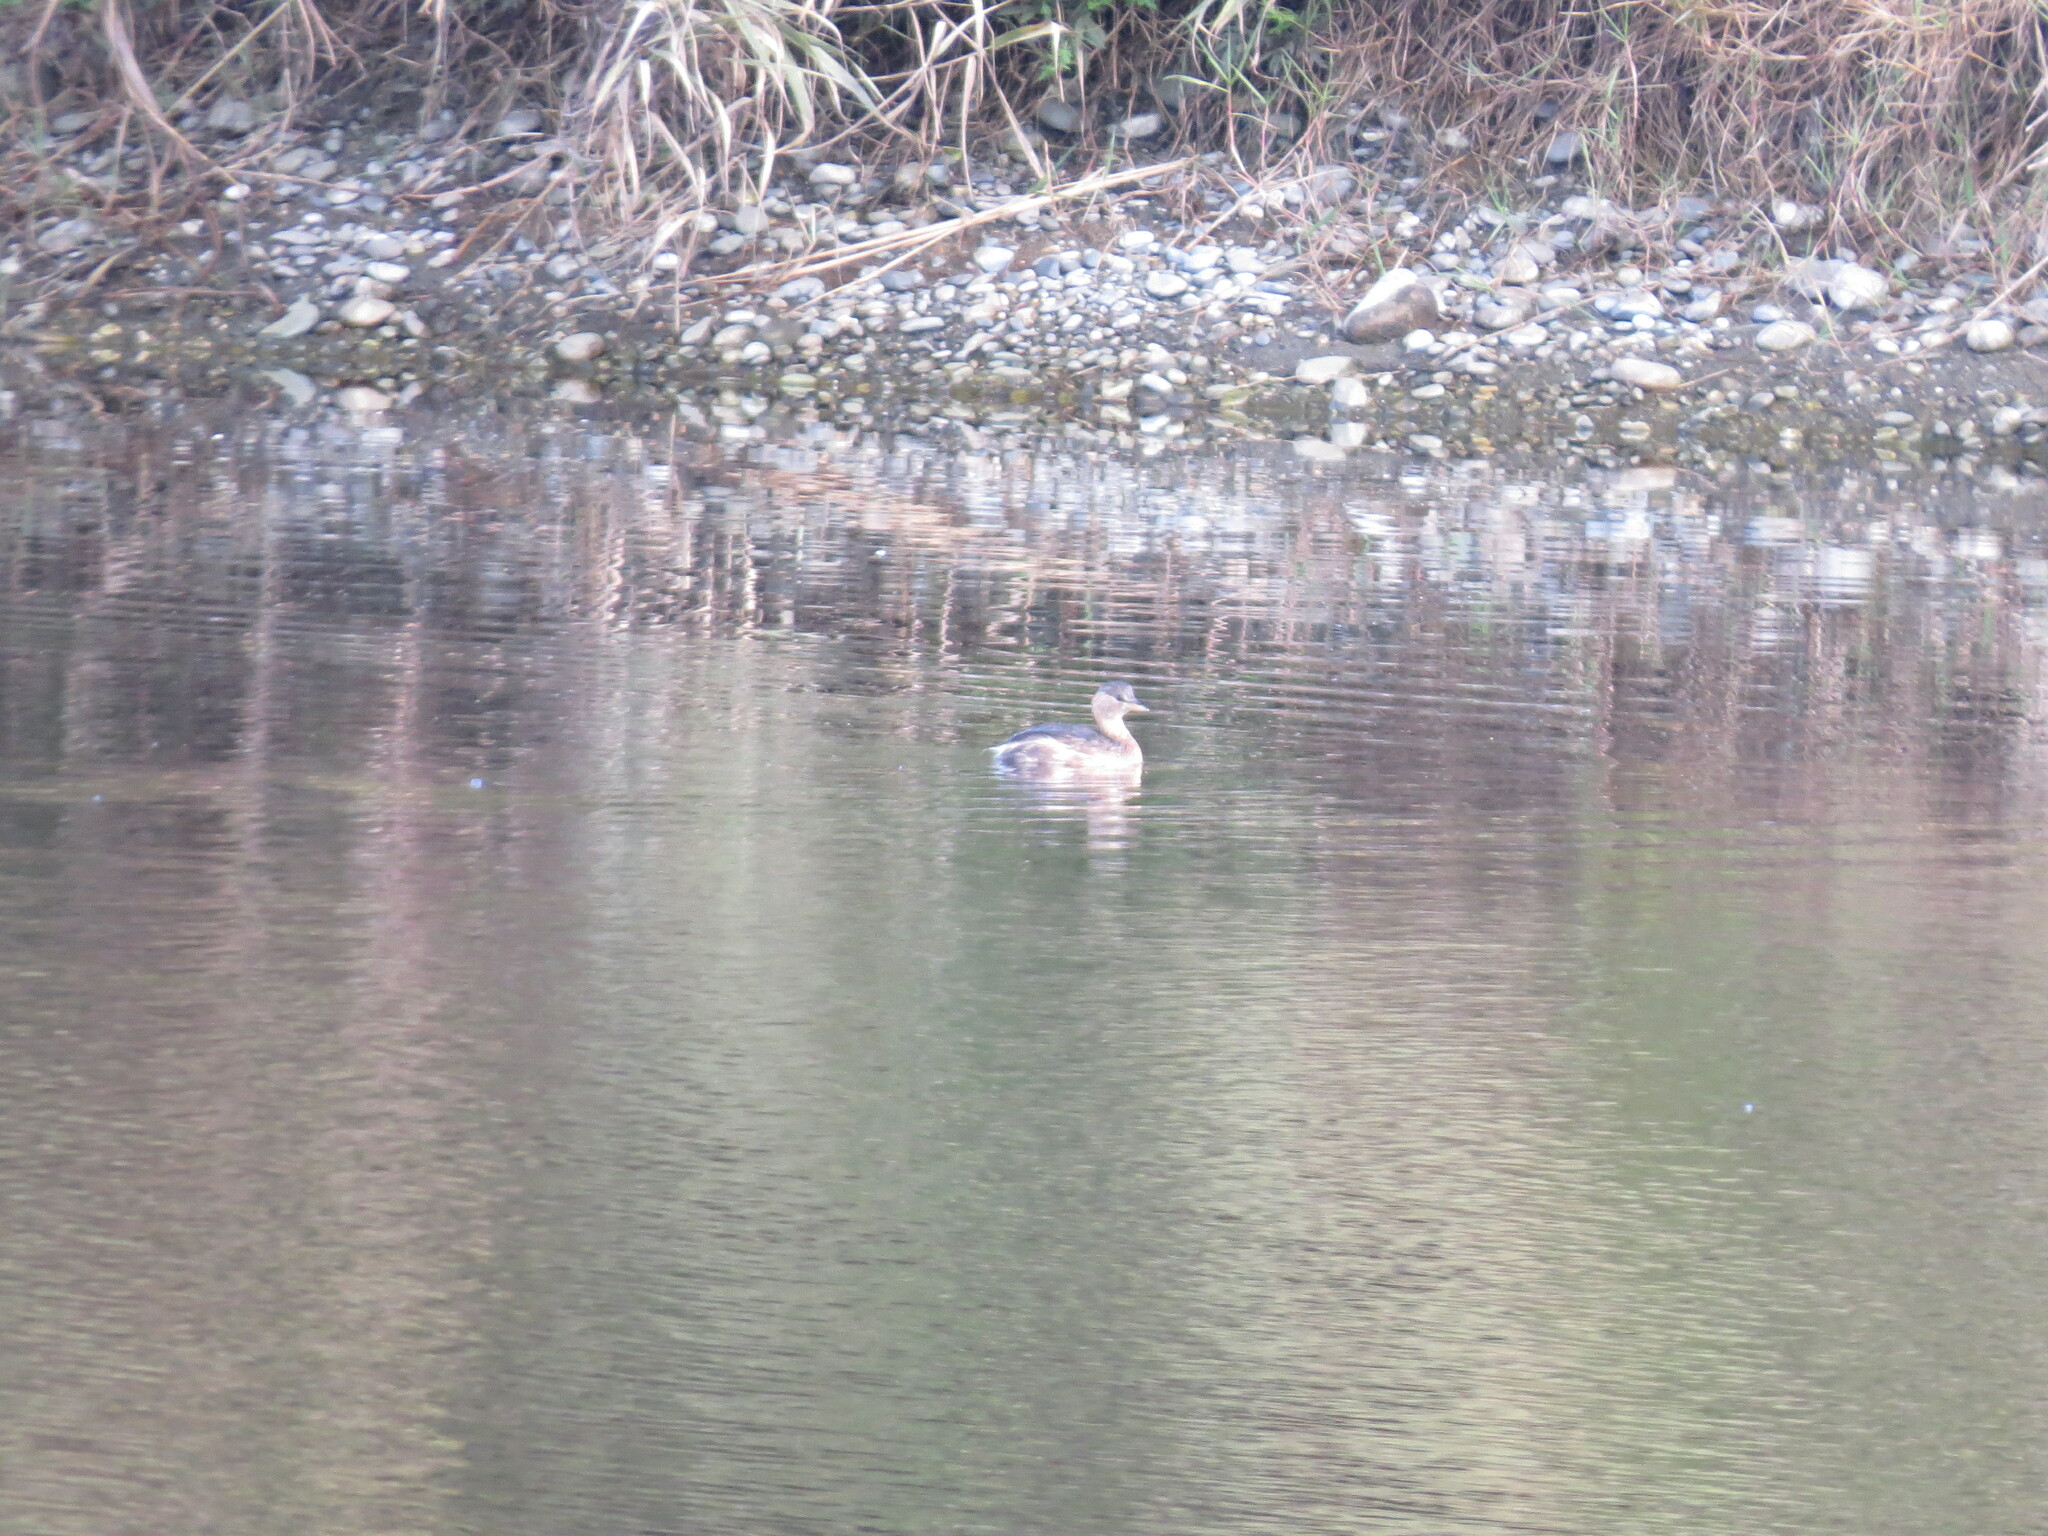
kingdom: Animalia
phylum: Chordata
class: Aves
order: Podicipediformes
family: Podicipedidae
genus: Tachybaptus
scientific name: Tachybaptus ruficollis
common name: Little grebe
